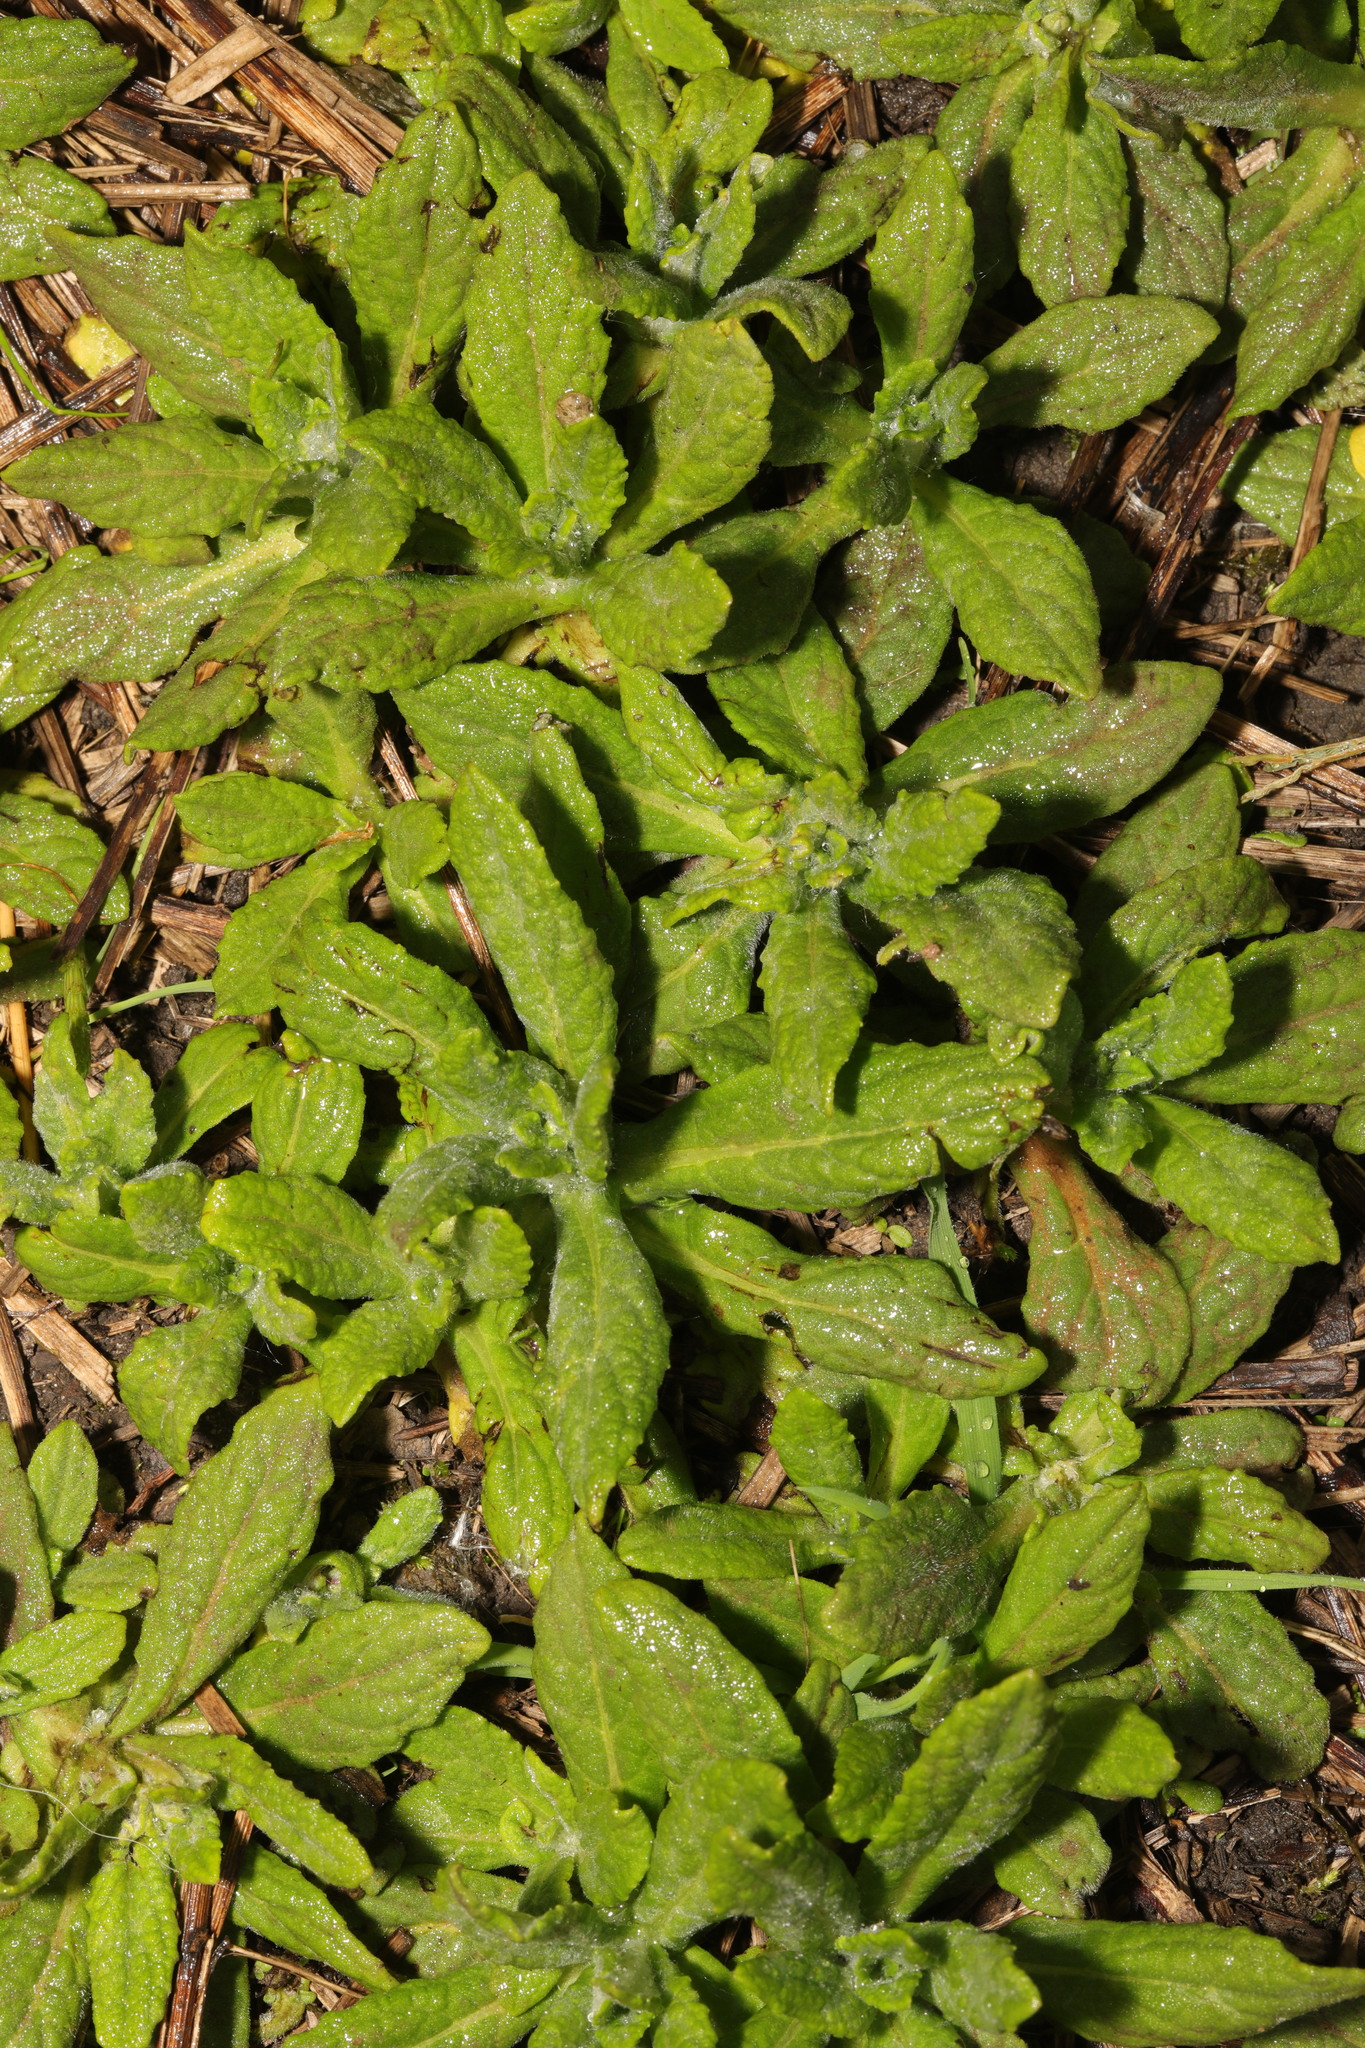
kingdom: Plantae
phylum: Tracheophyta
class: Magnoliopsida
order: Asterales
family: Asteraceae
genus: Pulicaria
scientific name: Pulicaria dysenterica
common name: Common fleabane
